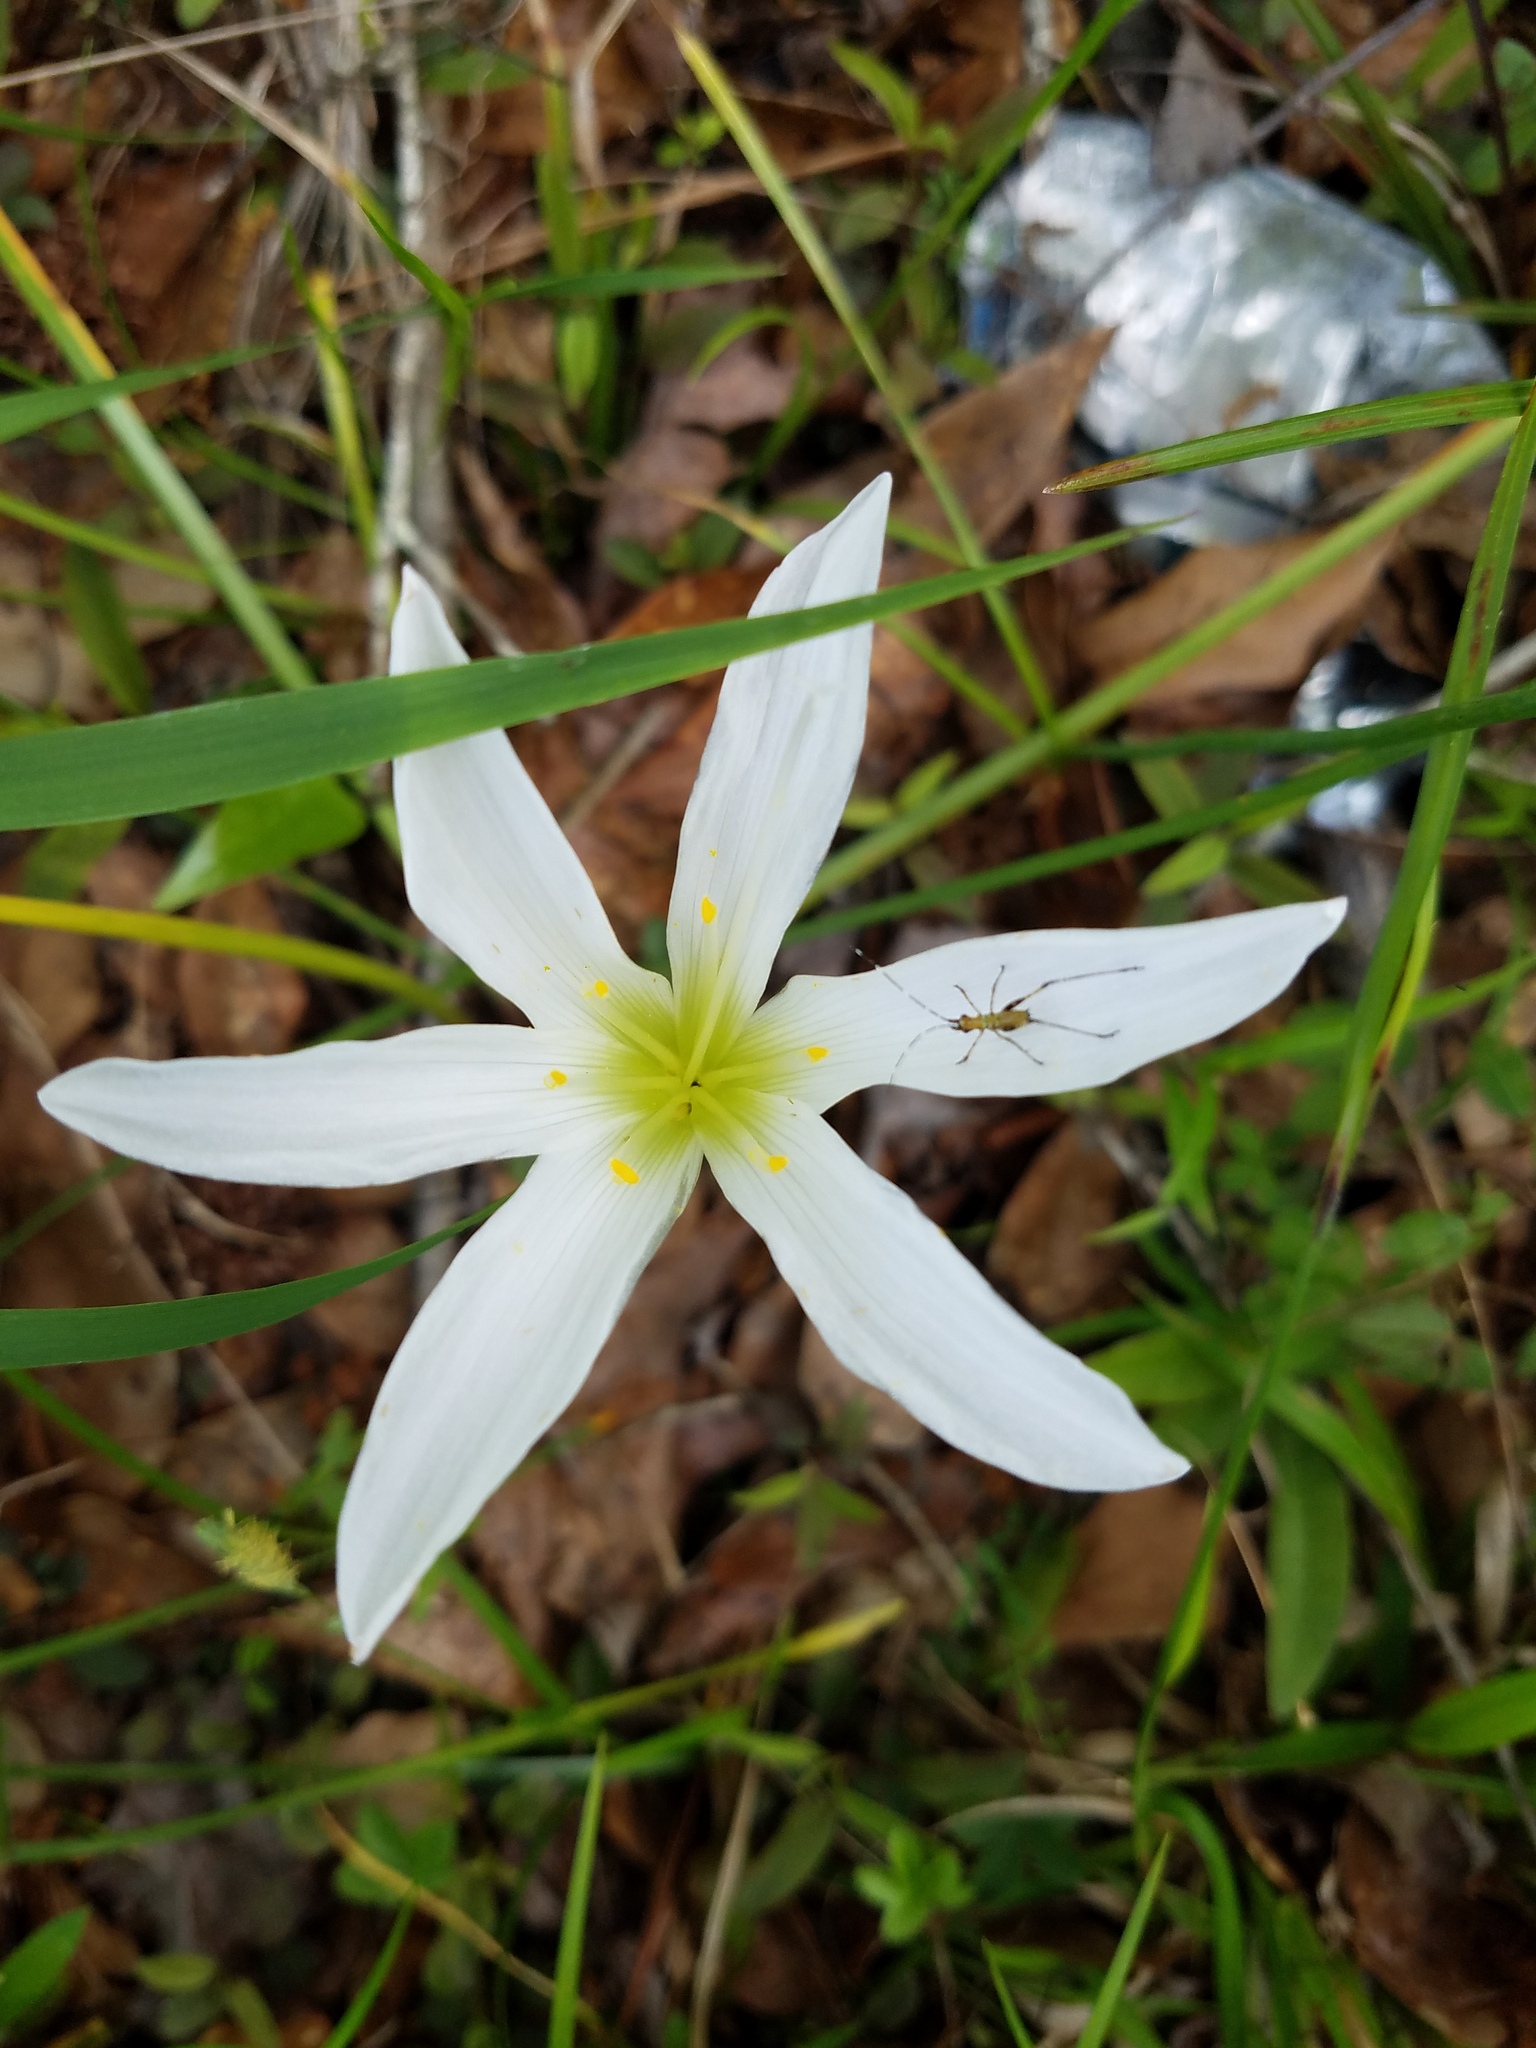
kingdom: Plantae
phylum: Tracheophyta
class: Liliopsida
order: Asparagales
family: Amaryllidaceae
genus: Zephyranthes
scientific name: Zephyranthes atamasco
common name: Atamasco lily
